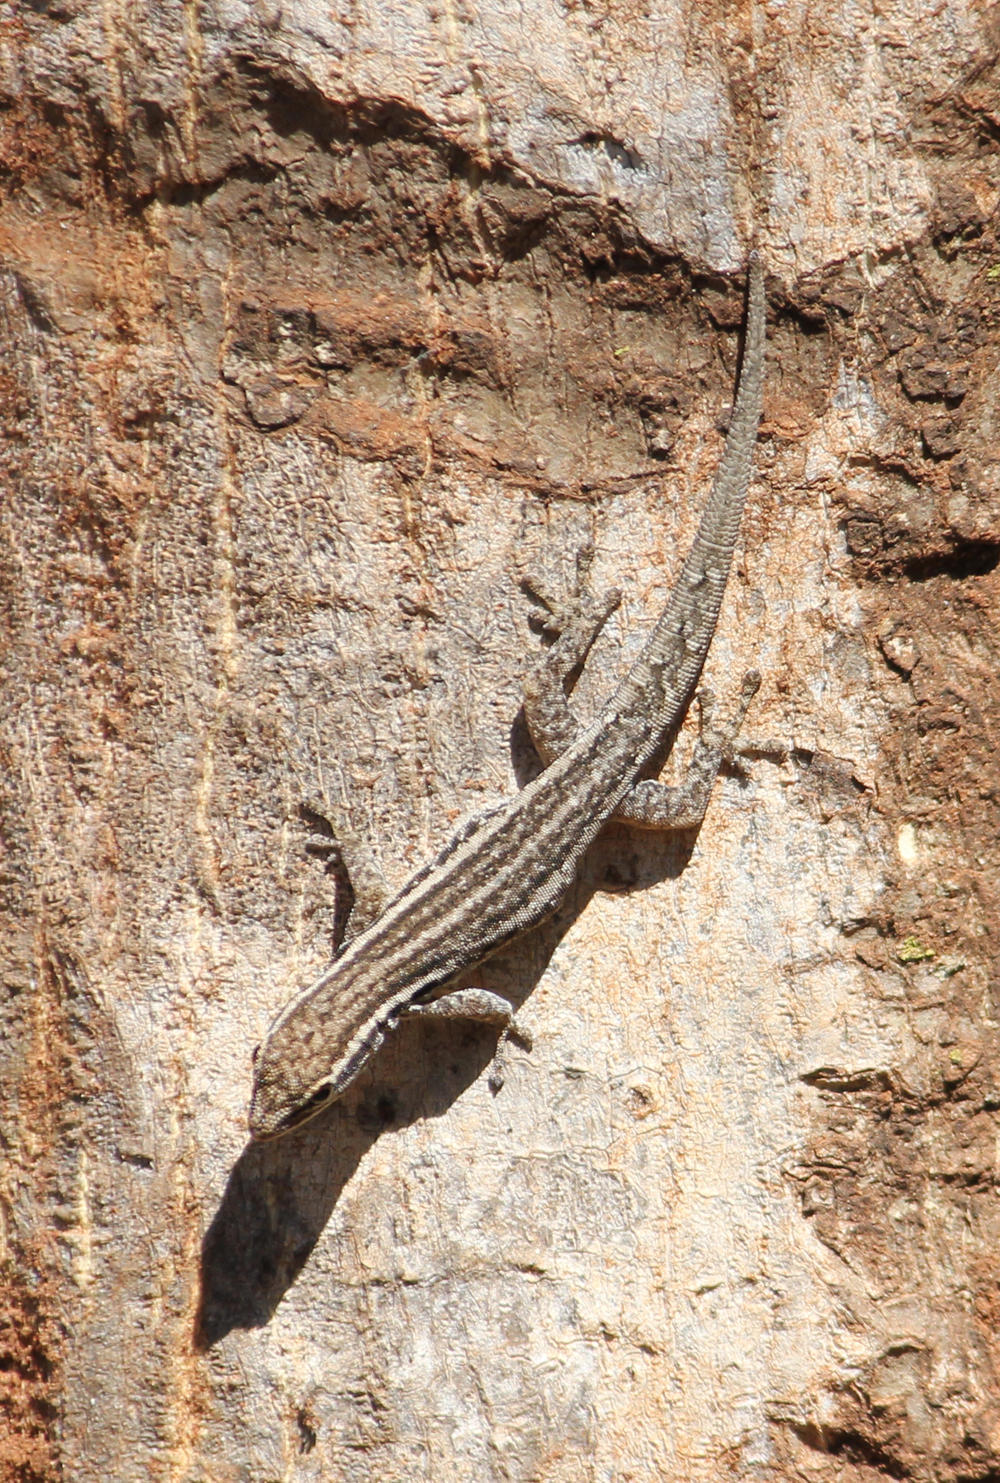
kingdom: Animalia
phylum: Chordata
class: Squamata
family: Gekkonidae
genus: Lygodactylus
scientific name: Lygodactylus capensis
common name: Cape dwarf gecko
